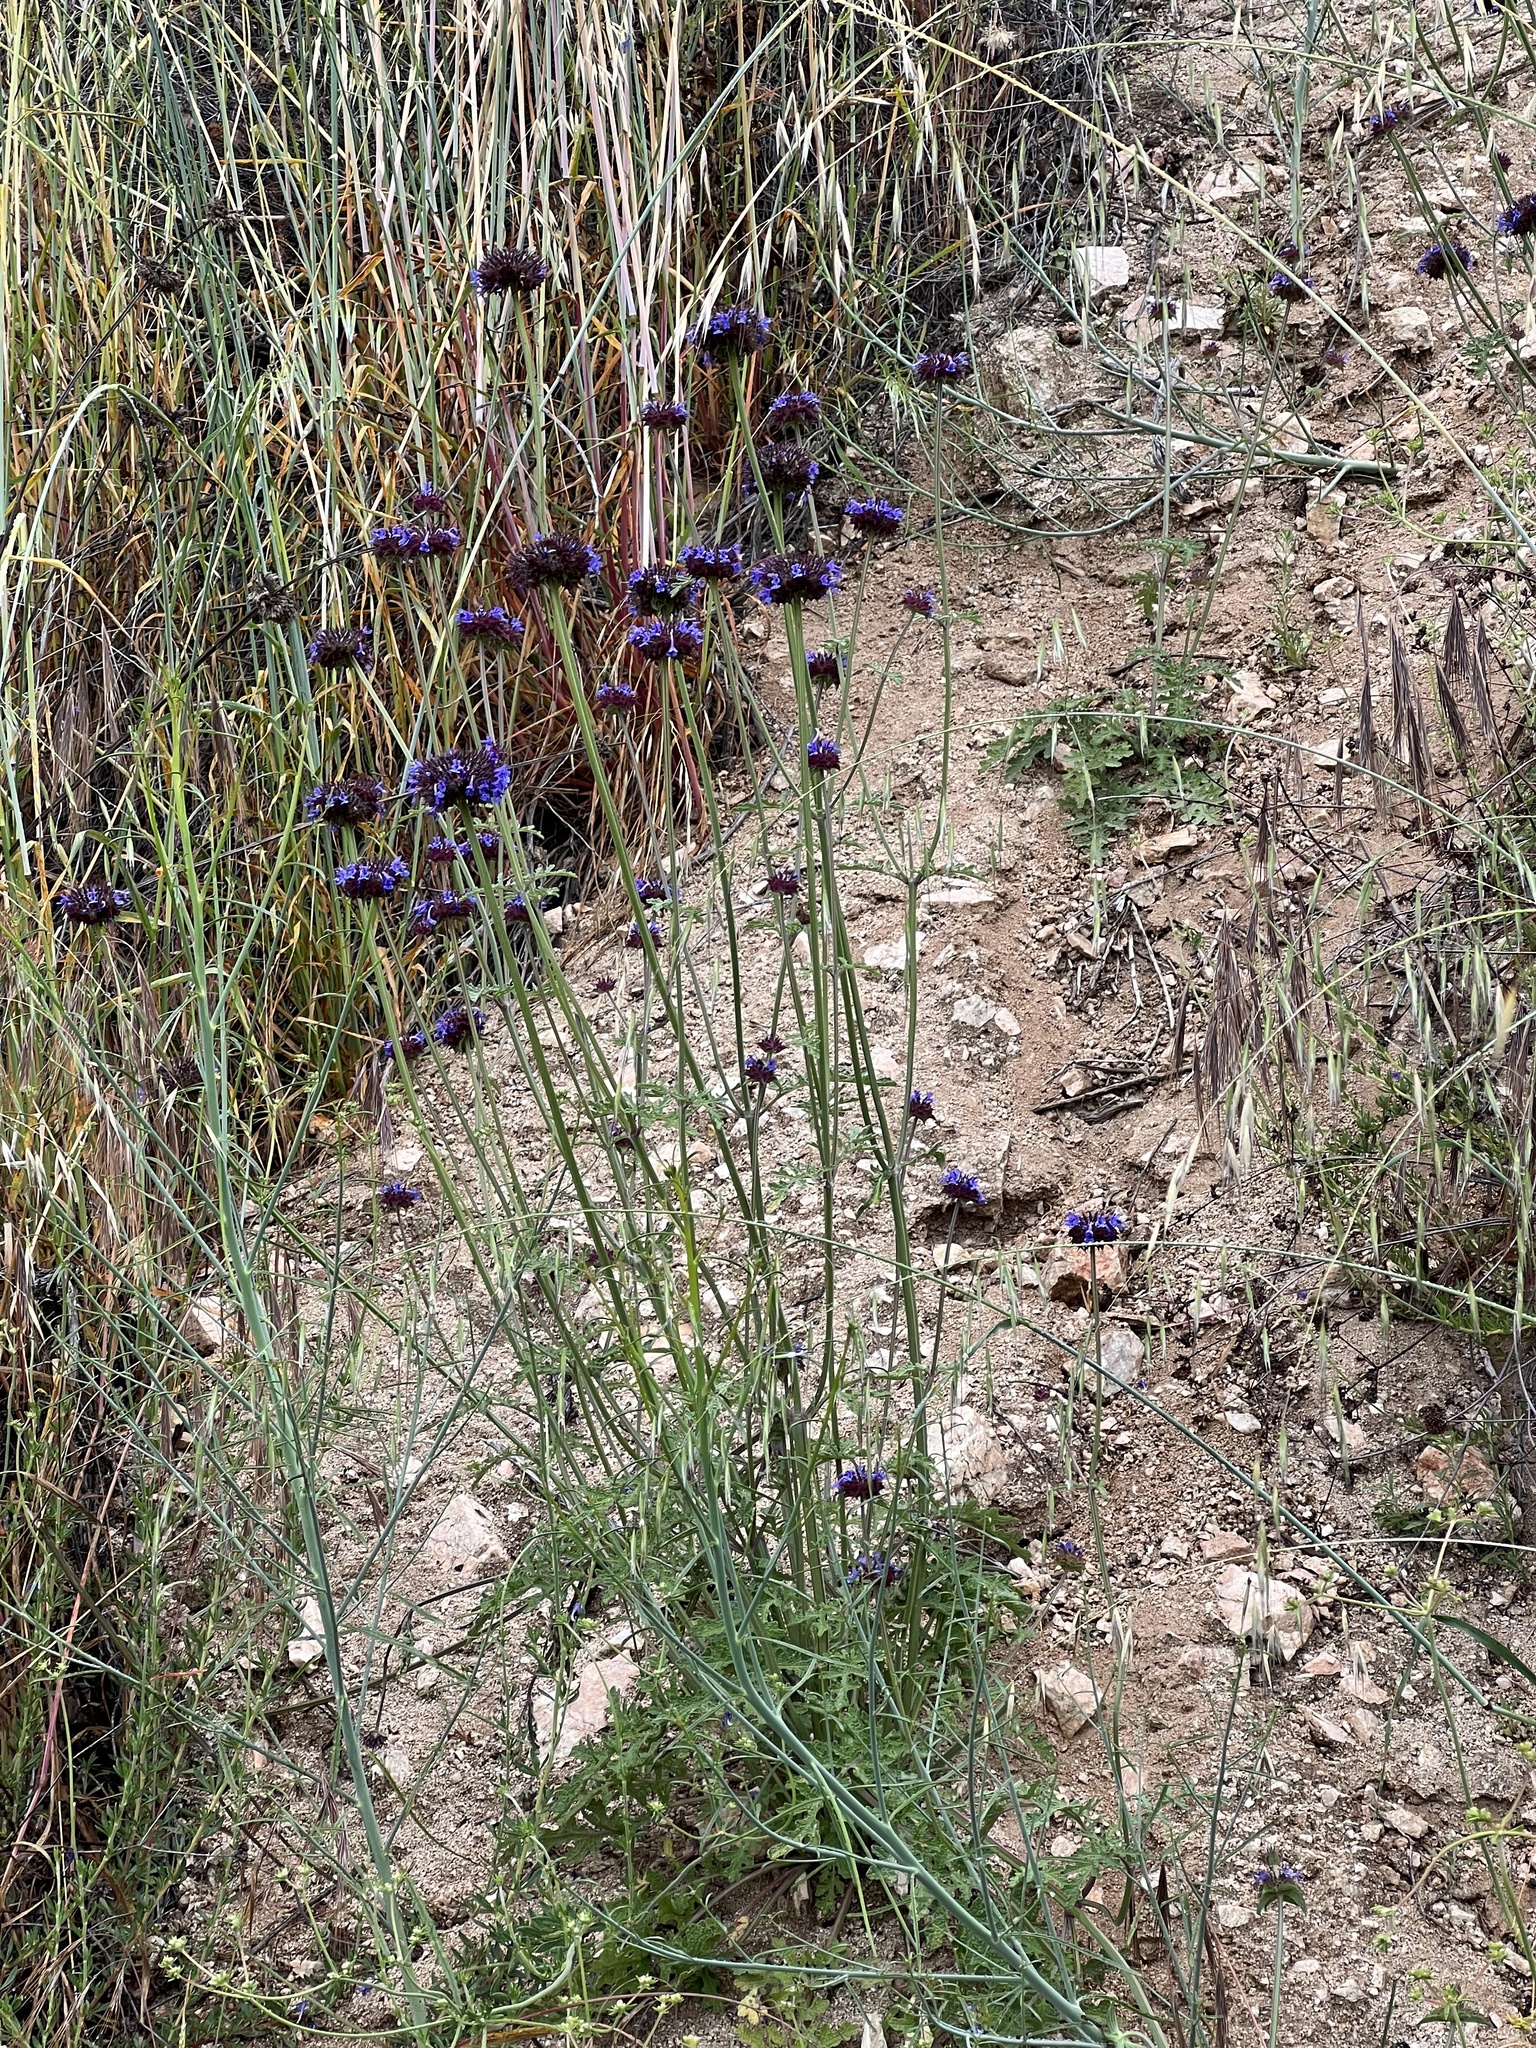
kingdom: Plantae
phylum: Tracheophyta
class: Magnoliopsida
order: Lamiales
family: Lamiaceae
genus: Salvia
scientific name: Salvia columbariae
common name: Chia
